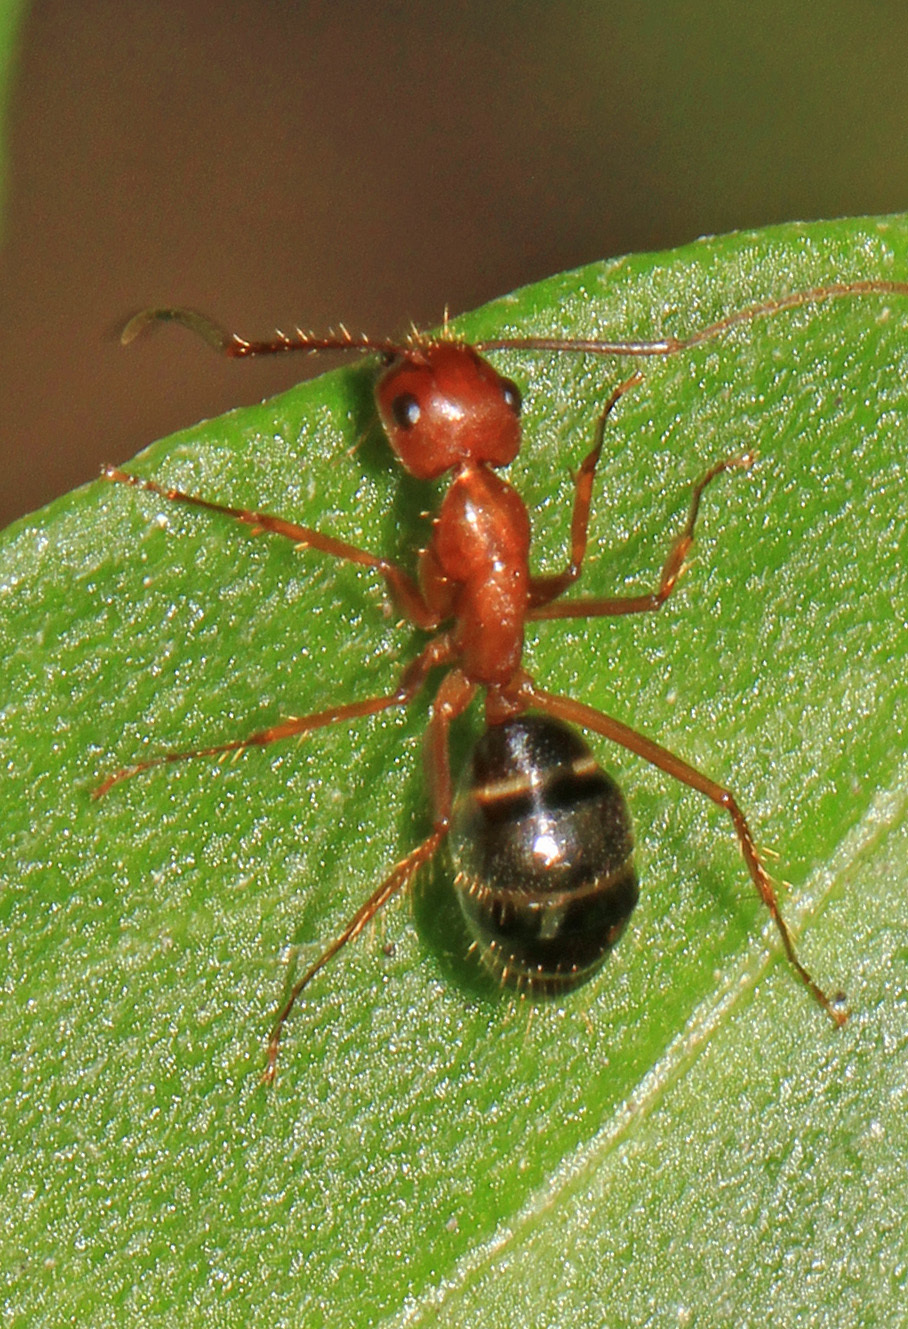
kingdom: Animalia
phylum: Arthropoda
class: Insecta
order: Hymenoptera
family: Formicidae
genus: Camponotus
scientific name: Camponotus floridanus
